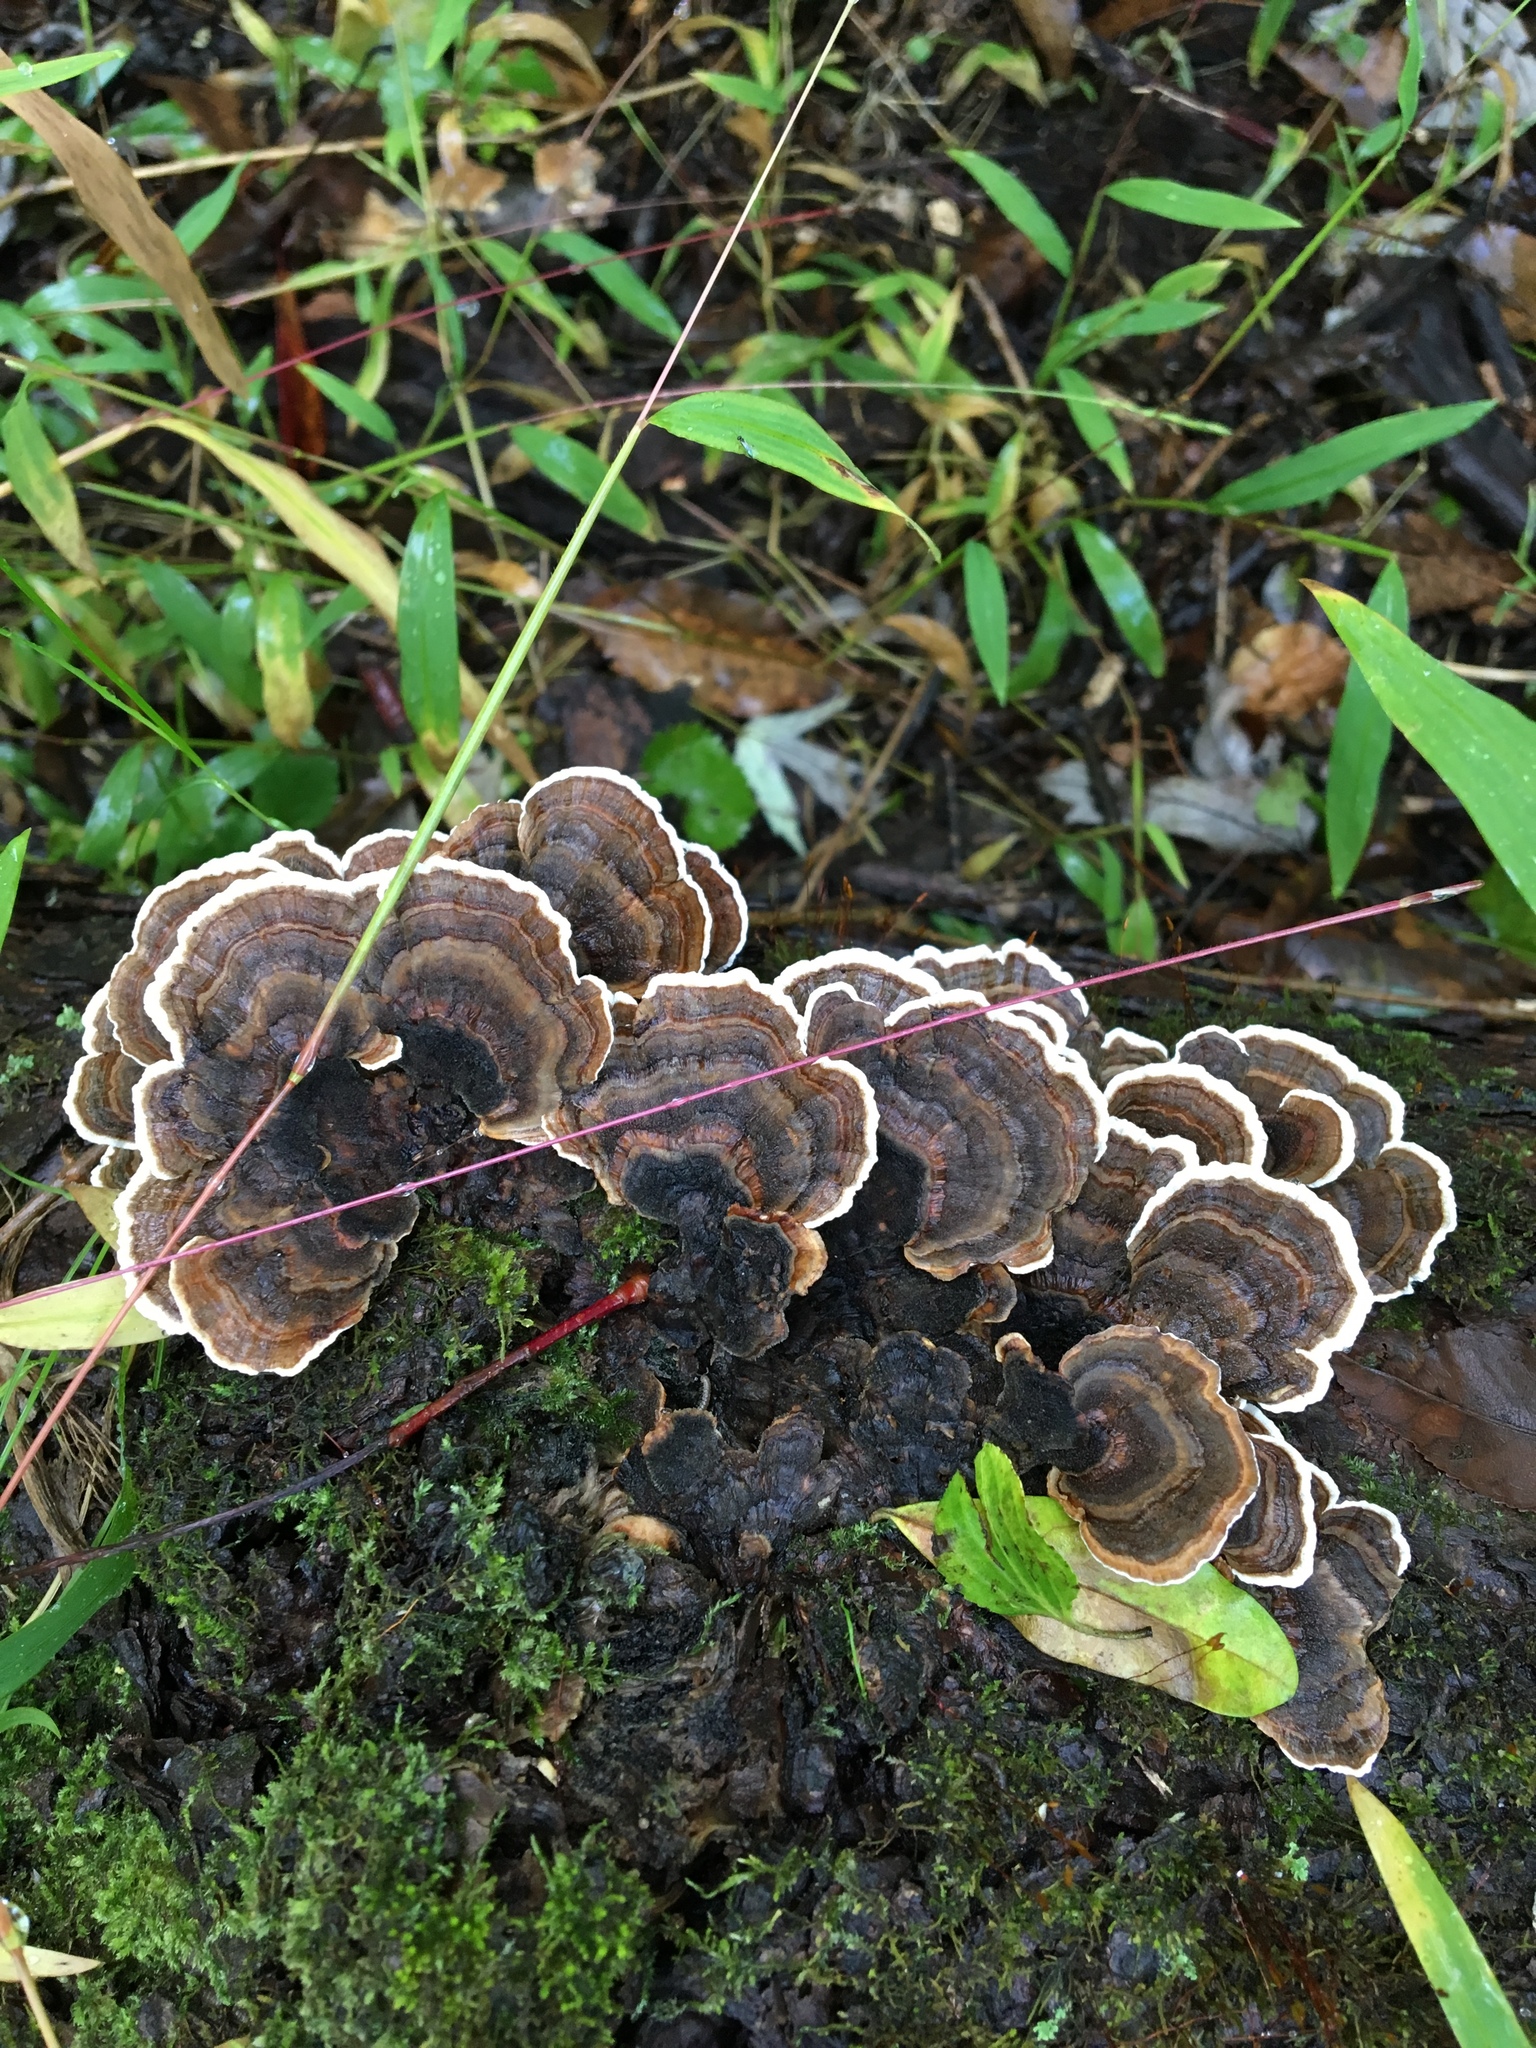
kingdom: Fungi
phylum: Basidiomycota
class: Agaricomycetes
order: Polyporales
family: Polyporaceae
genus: Trametes
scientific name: Trametes versicolor
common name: Turkeytail
